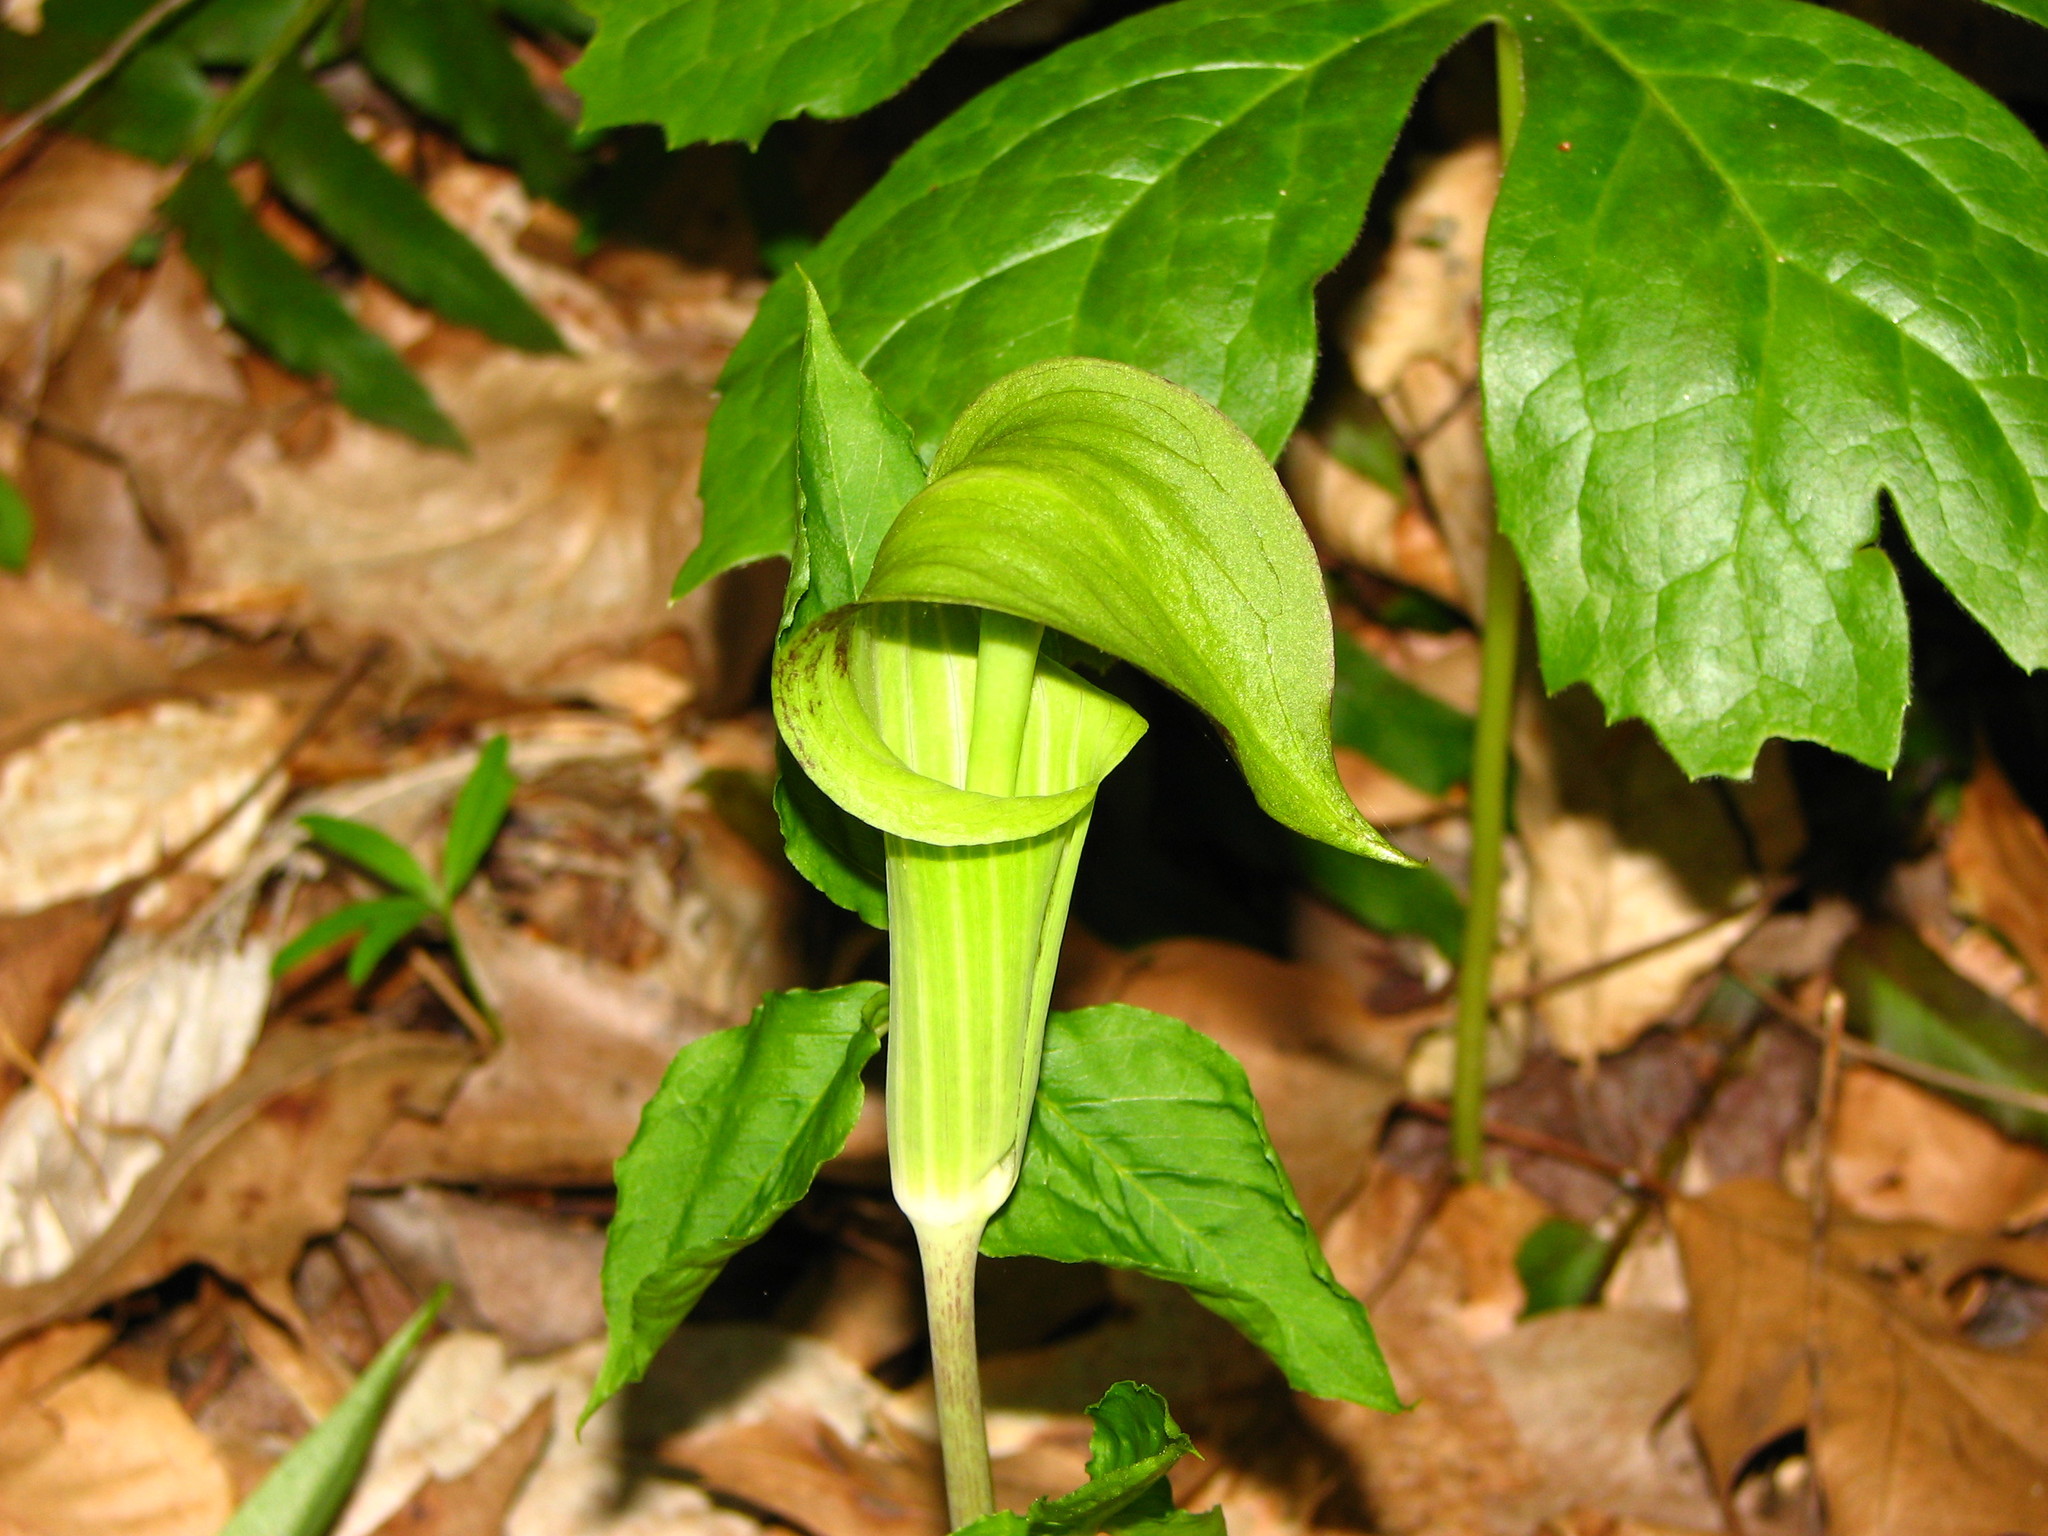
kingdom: Plantae
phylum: Tracheophyta
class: Liliopsida
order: Alismatales
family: Araceae
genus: Arisaema
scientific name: Arisaema triphyllum
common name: Jack-in-the-pulpit
